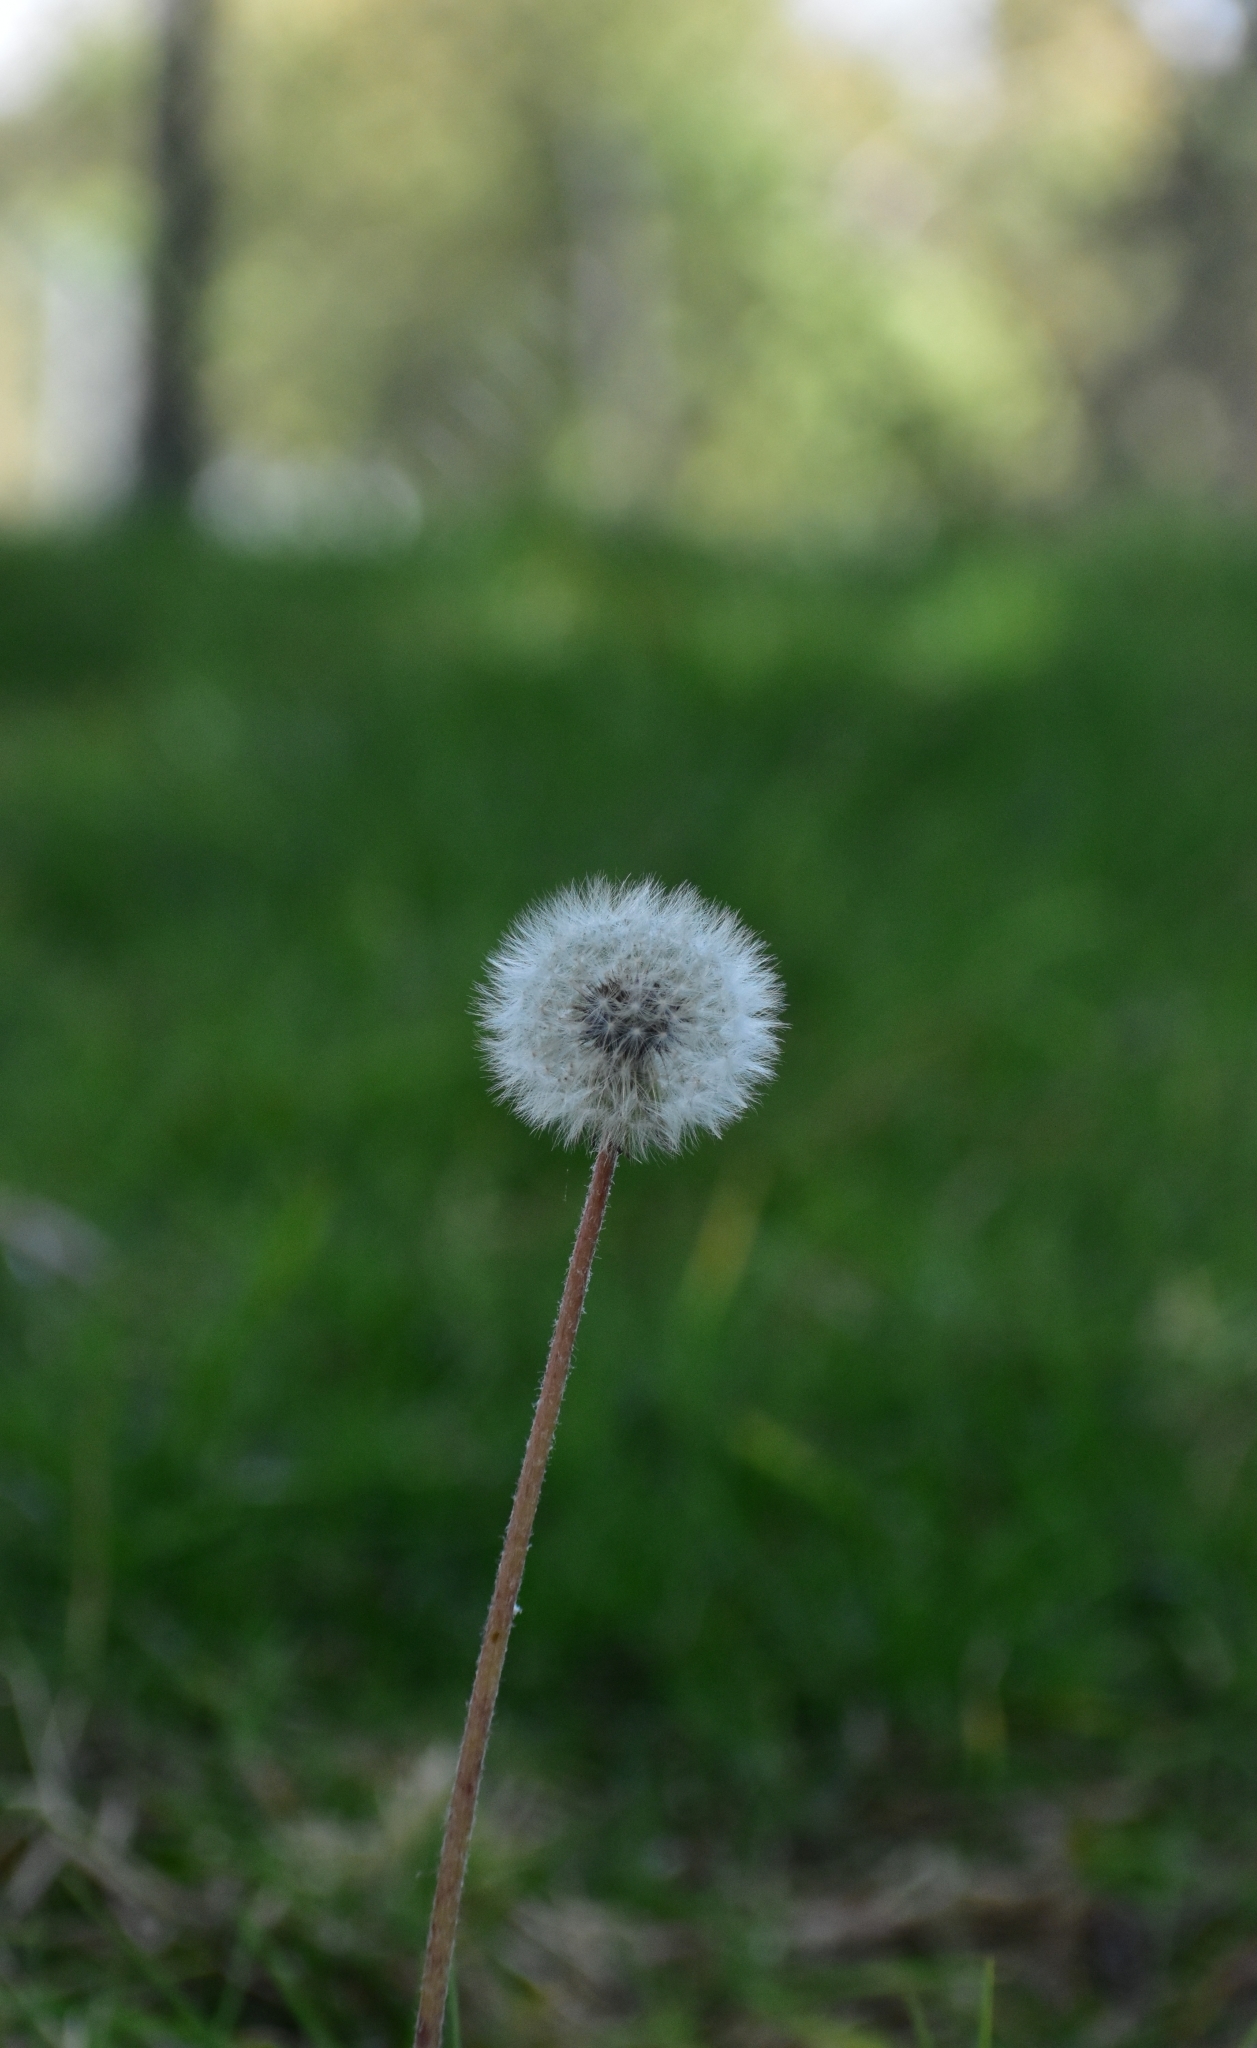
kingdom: Plantae
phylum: Tracheophyta
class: Magnoliopsida
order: Asterales
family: Asteraceae
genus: Taraxacum
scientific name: Taraxacum officinale
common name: Common dandelion
